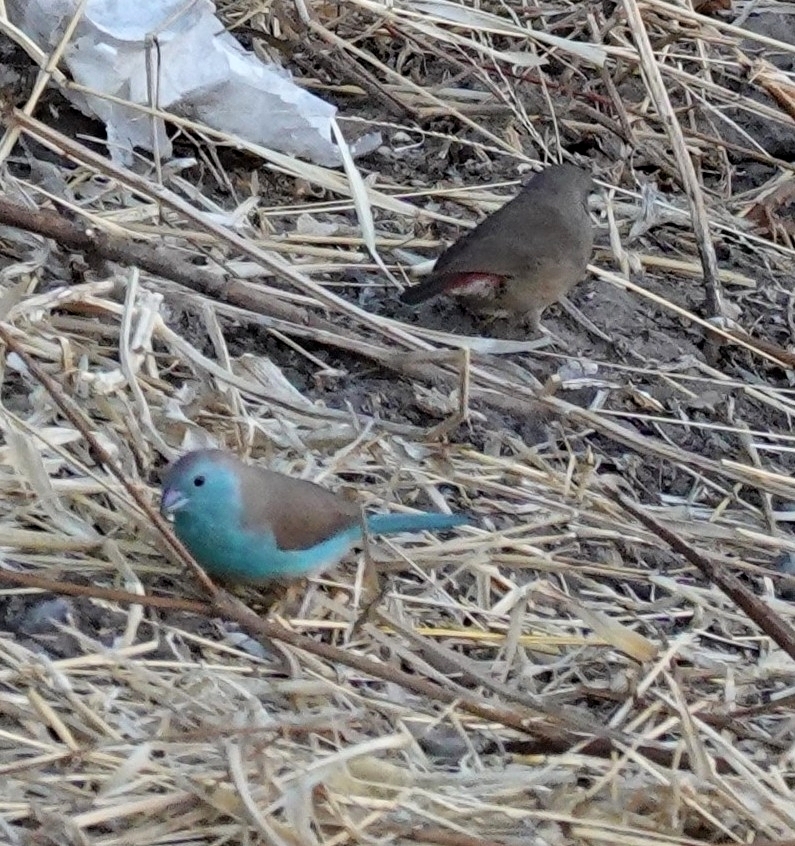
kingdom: Animalia
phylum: Chordata
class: Aves
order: Passeriformes
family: Estrildidae
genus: Uraeginthus
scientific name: Uraeginthus angolensis
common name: Blue waxbill
